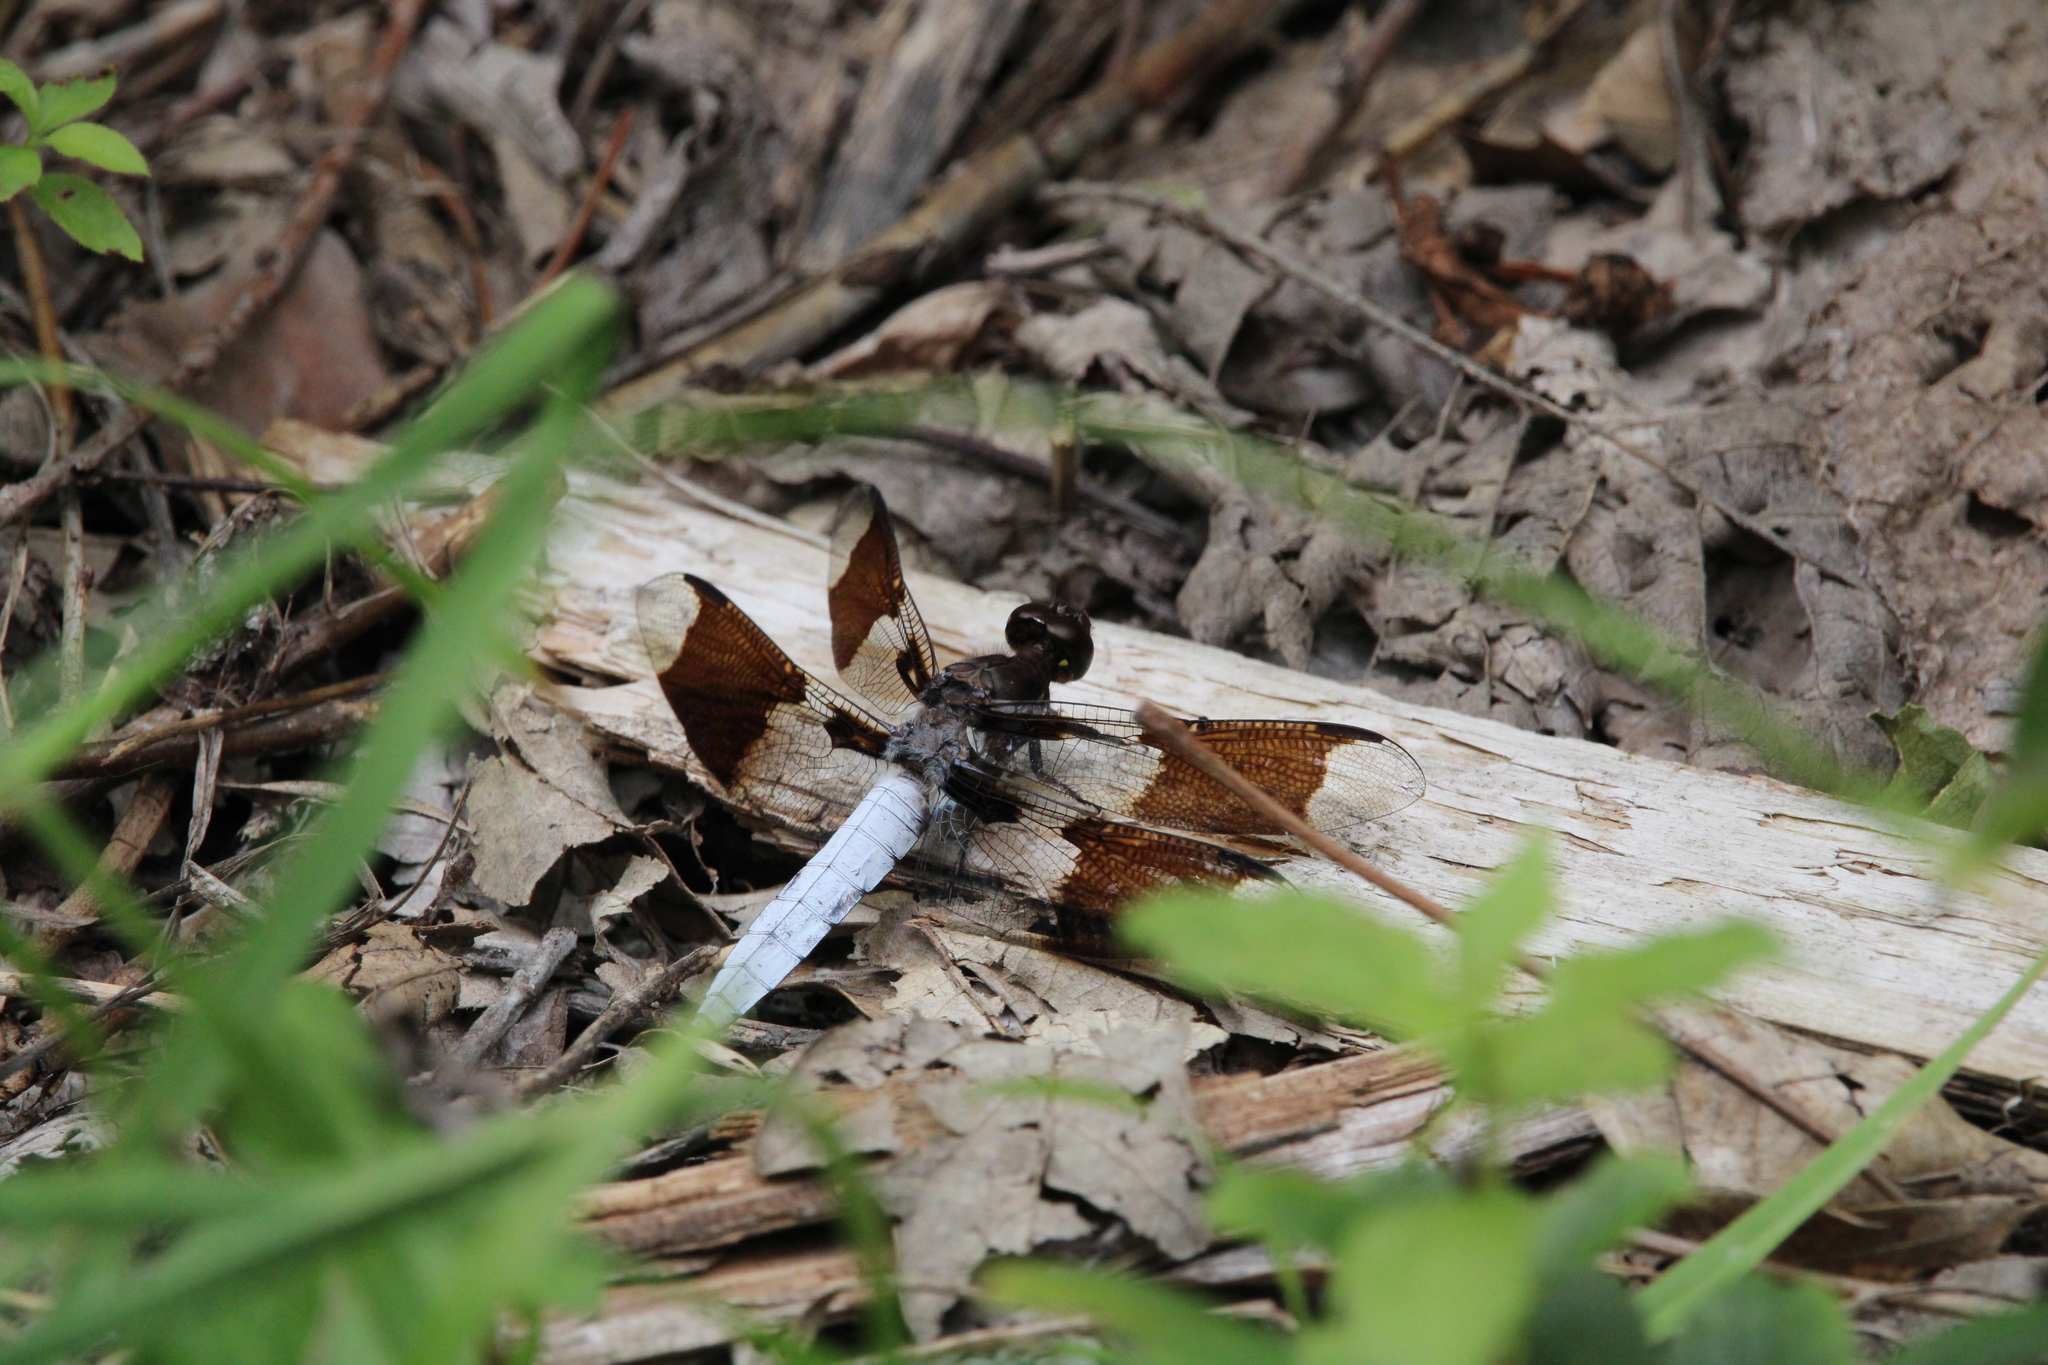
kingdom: Animalia
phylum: Arthropoda
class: Insecta
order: Odonata
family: Libellulidae
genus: Plathemis
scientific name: Plathemis lydia
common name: Common whitetail
